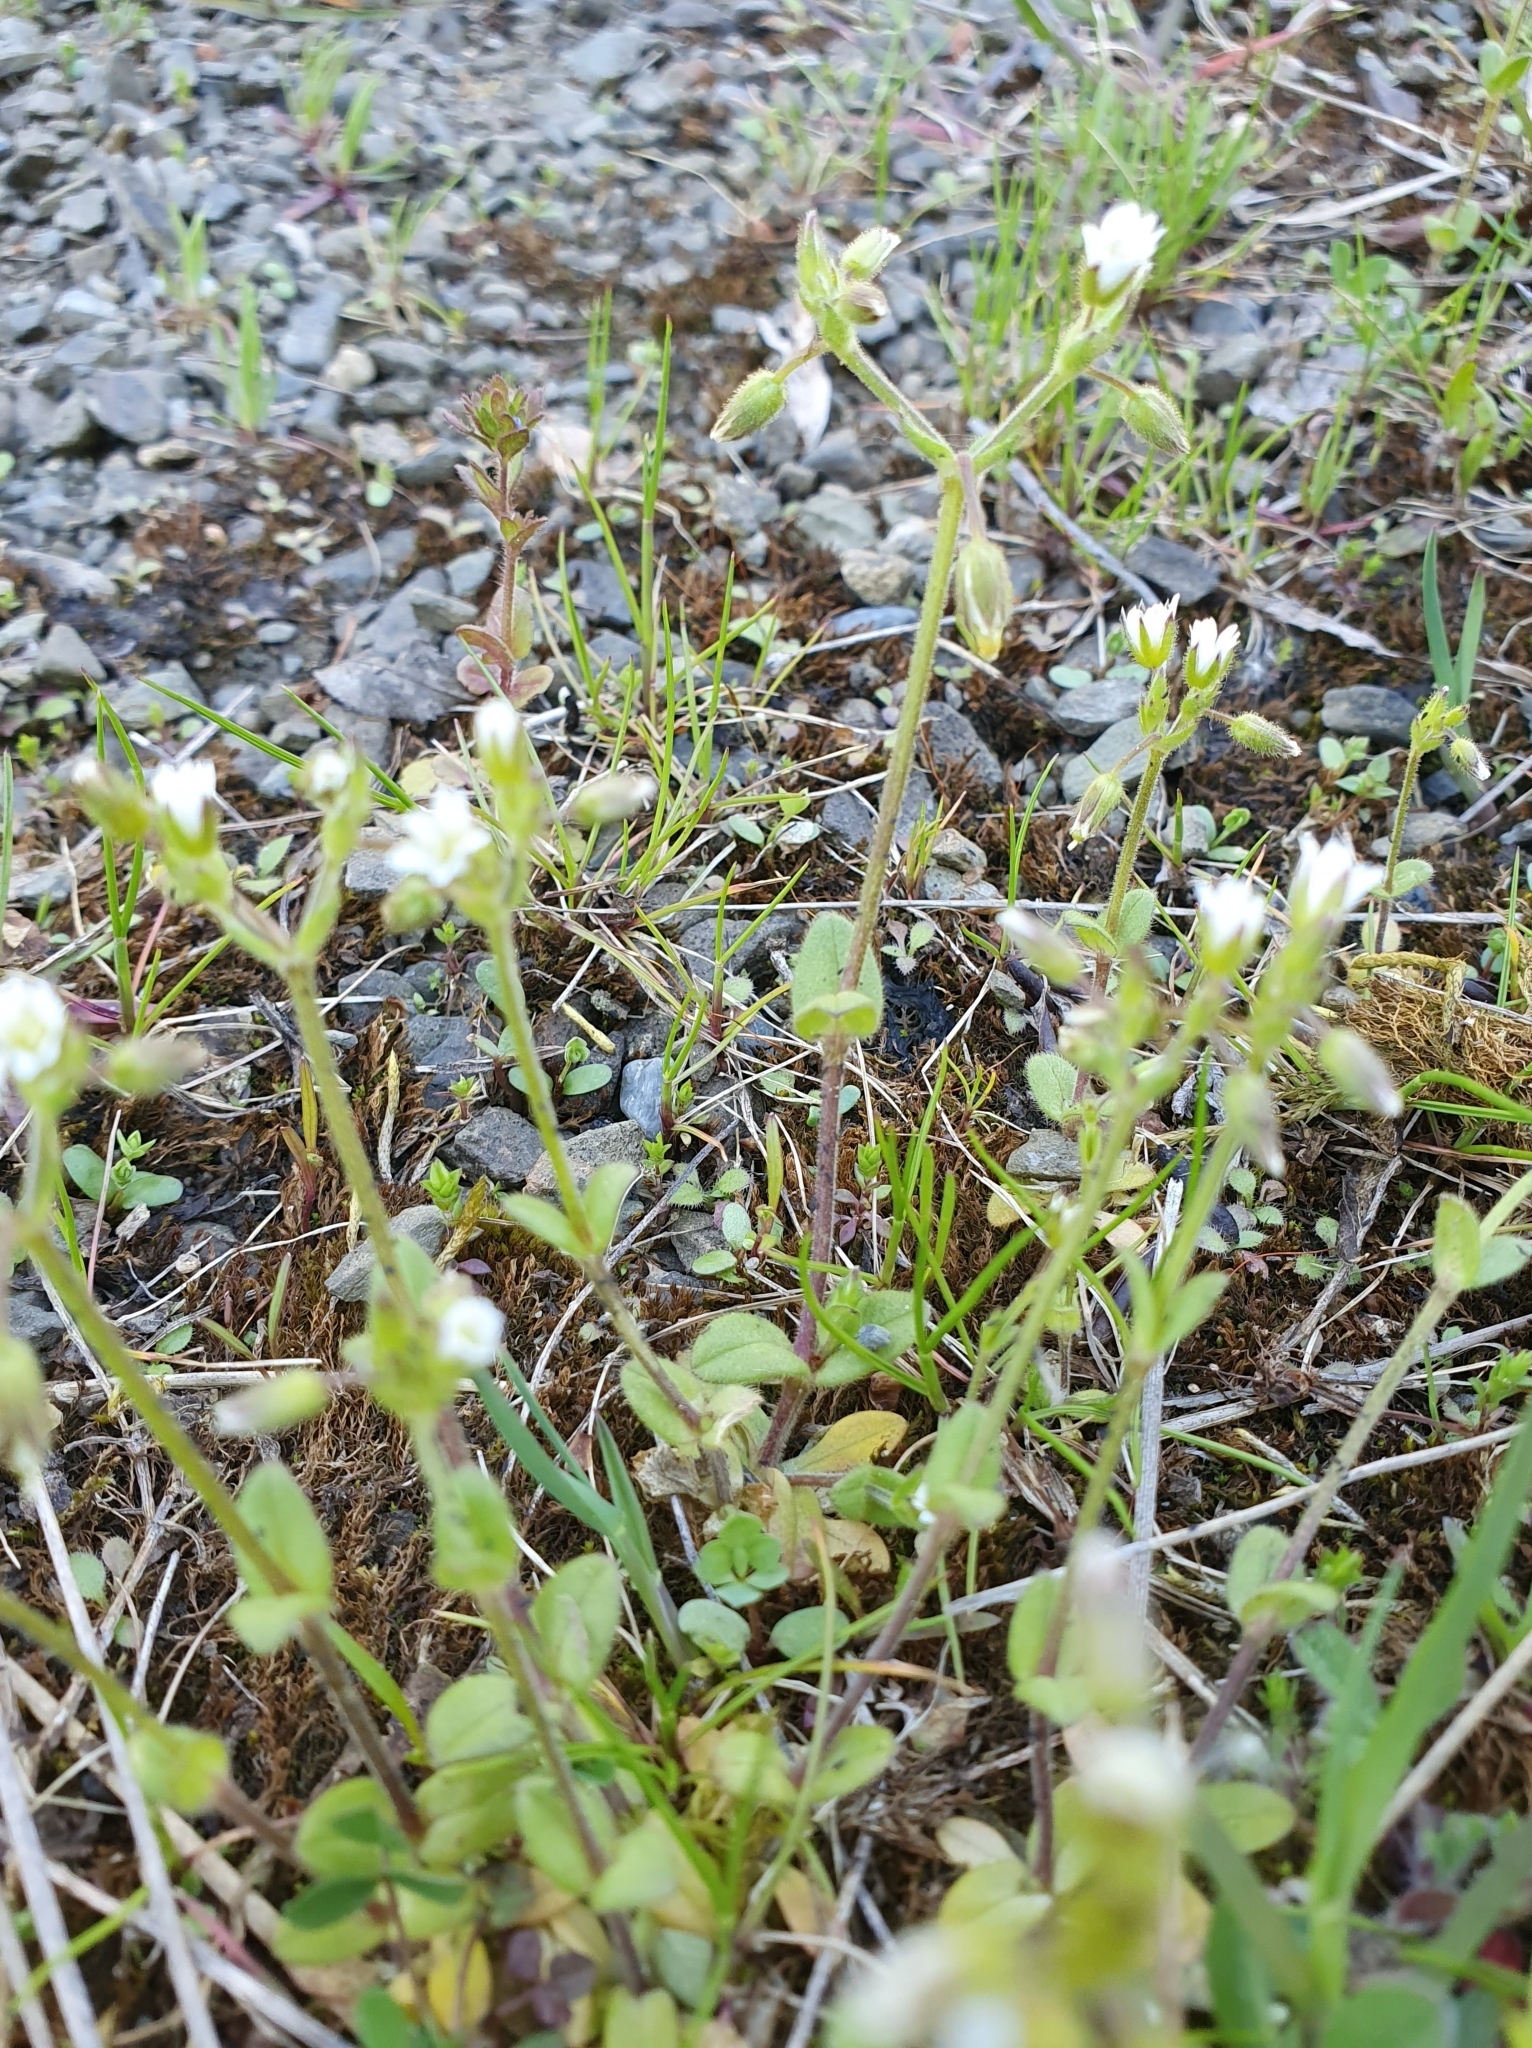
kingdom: Plantae
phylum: Tracheophyta
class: Magnoliopsida
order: Caryophyllales
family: Caryophyllaceae
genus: Cerastium
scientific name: Cerastium glutinosum
